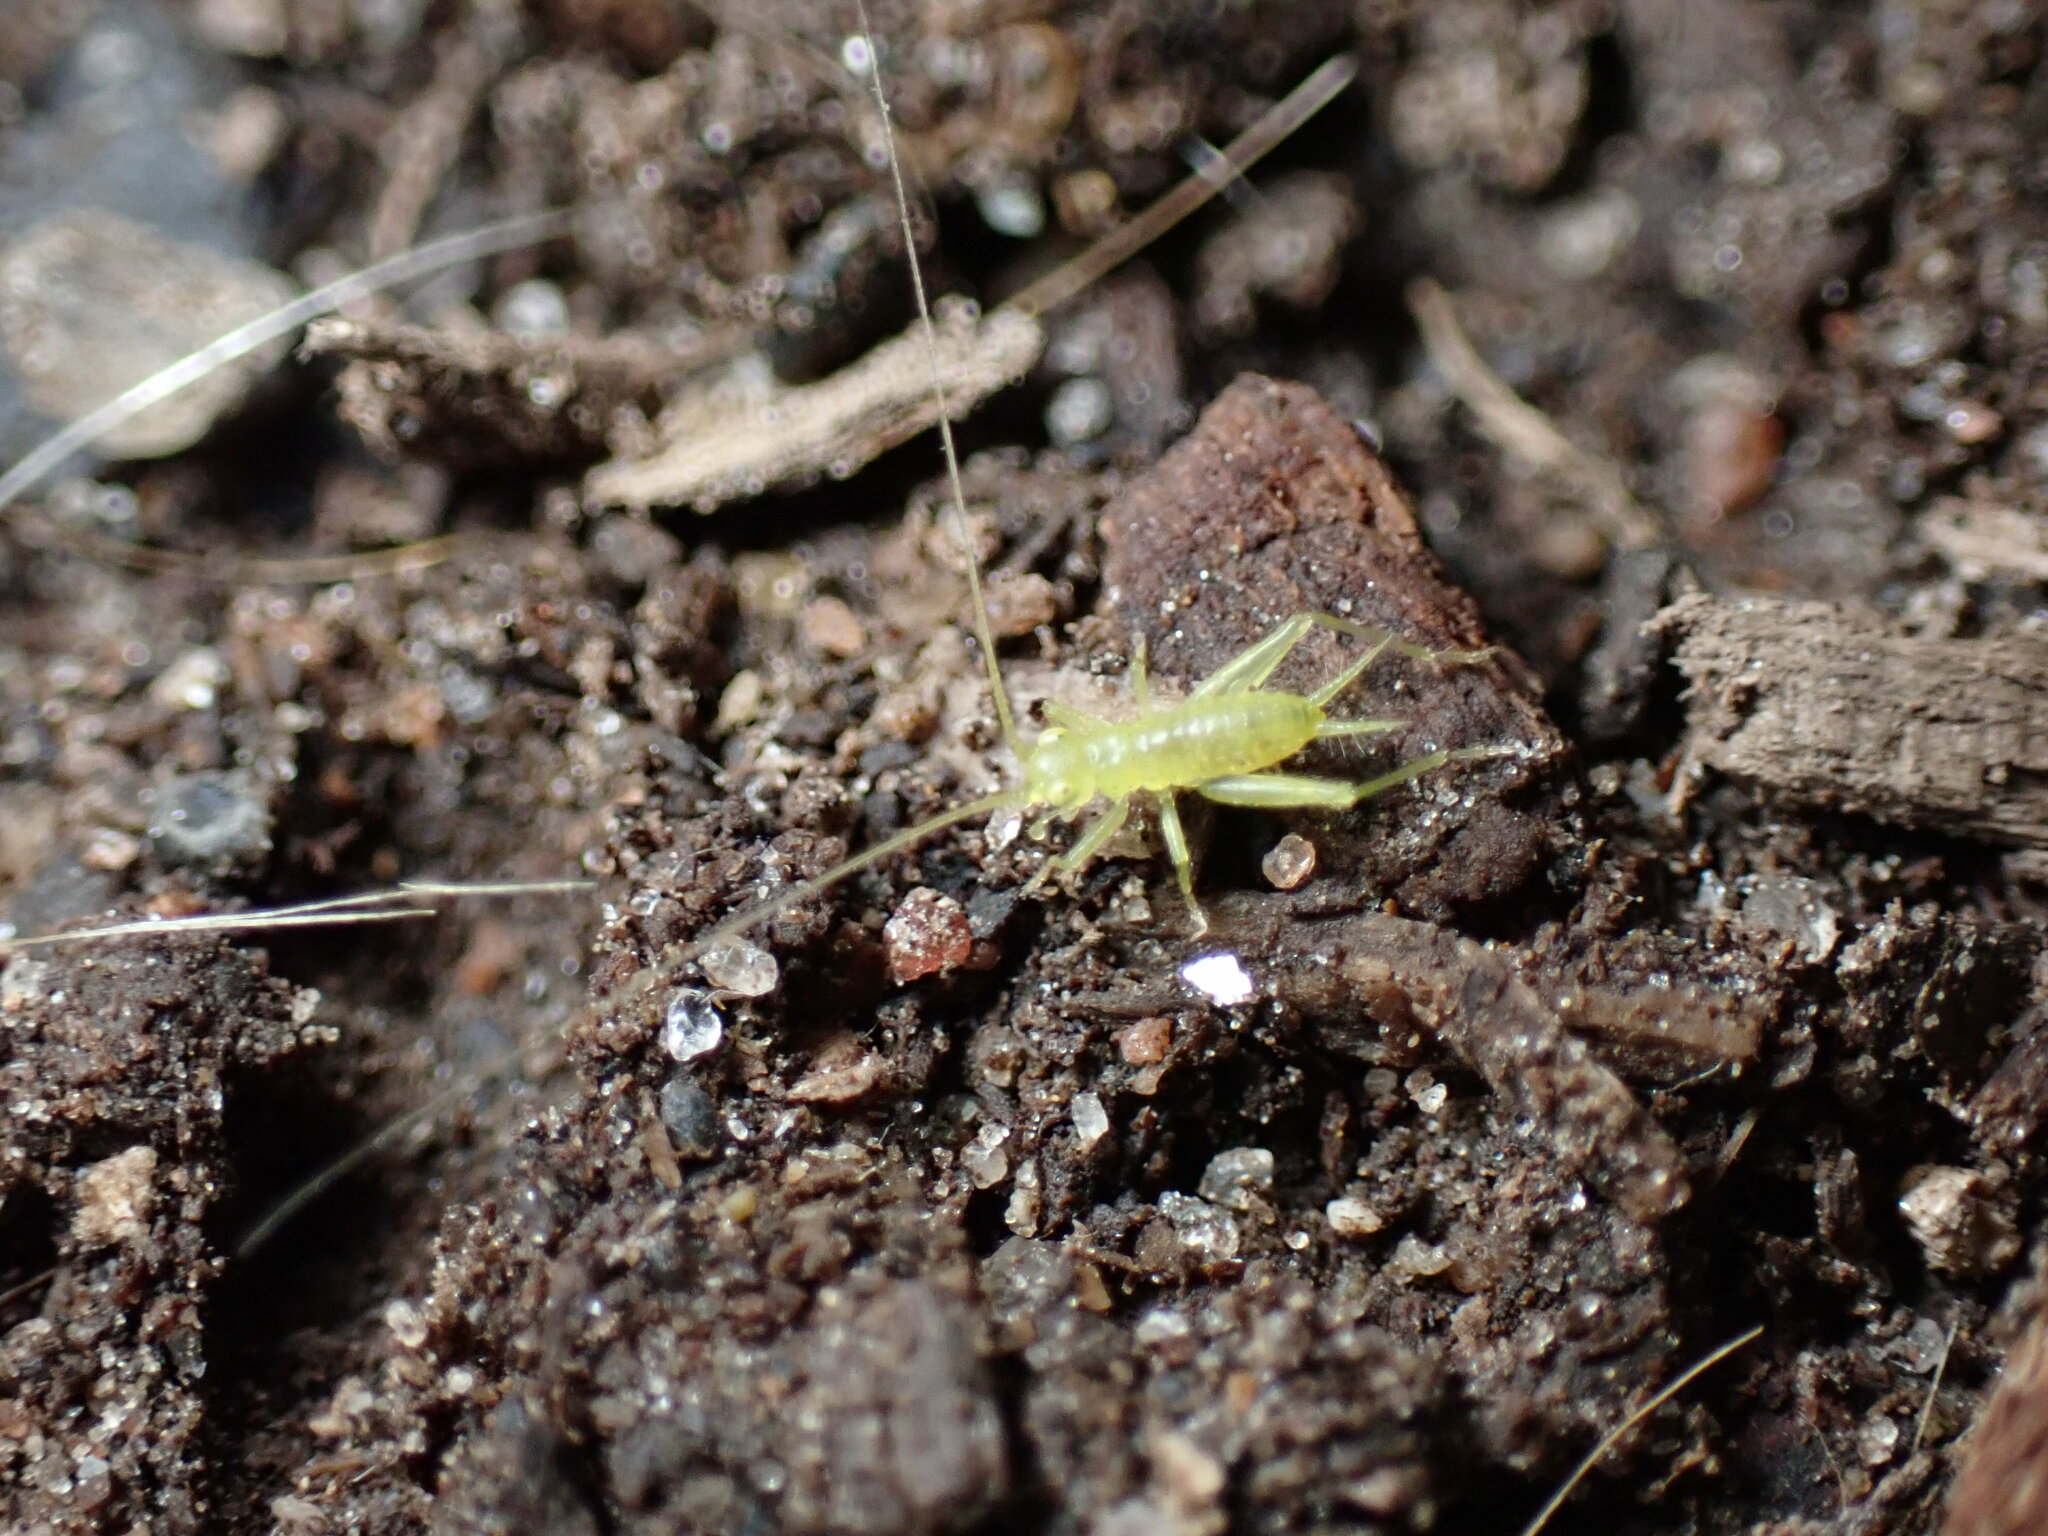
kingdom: Animalia
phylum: Arthropoda
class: Insecta
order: Orthoptera
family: Trigonidiidae
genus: Cyrtoxipha
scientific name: Cyrtoxipha columbiana
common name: Columbian trig
